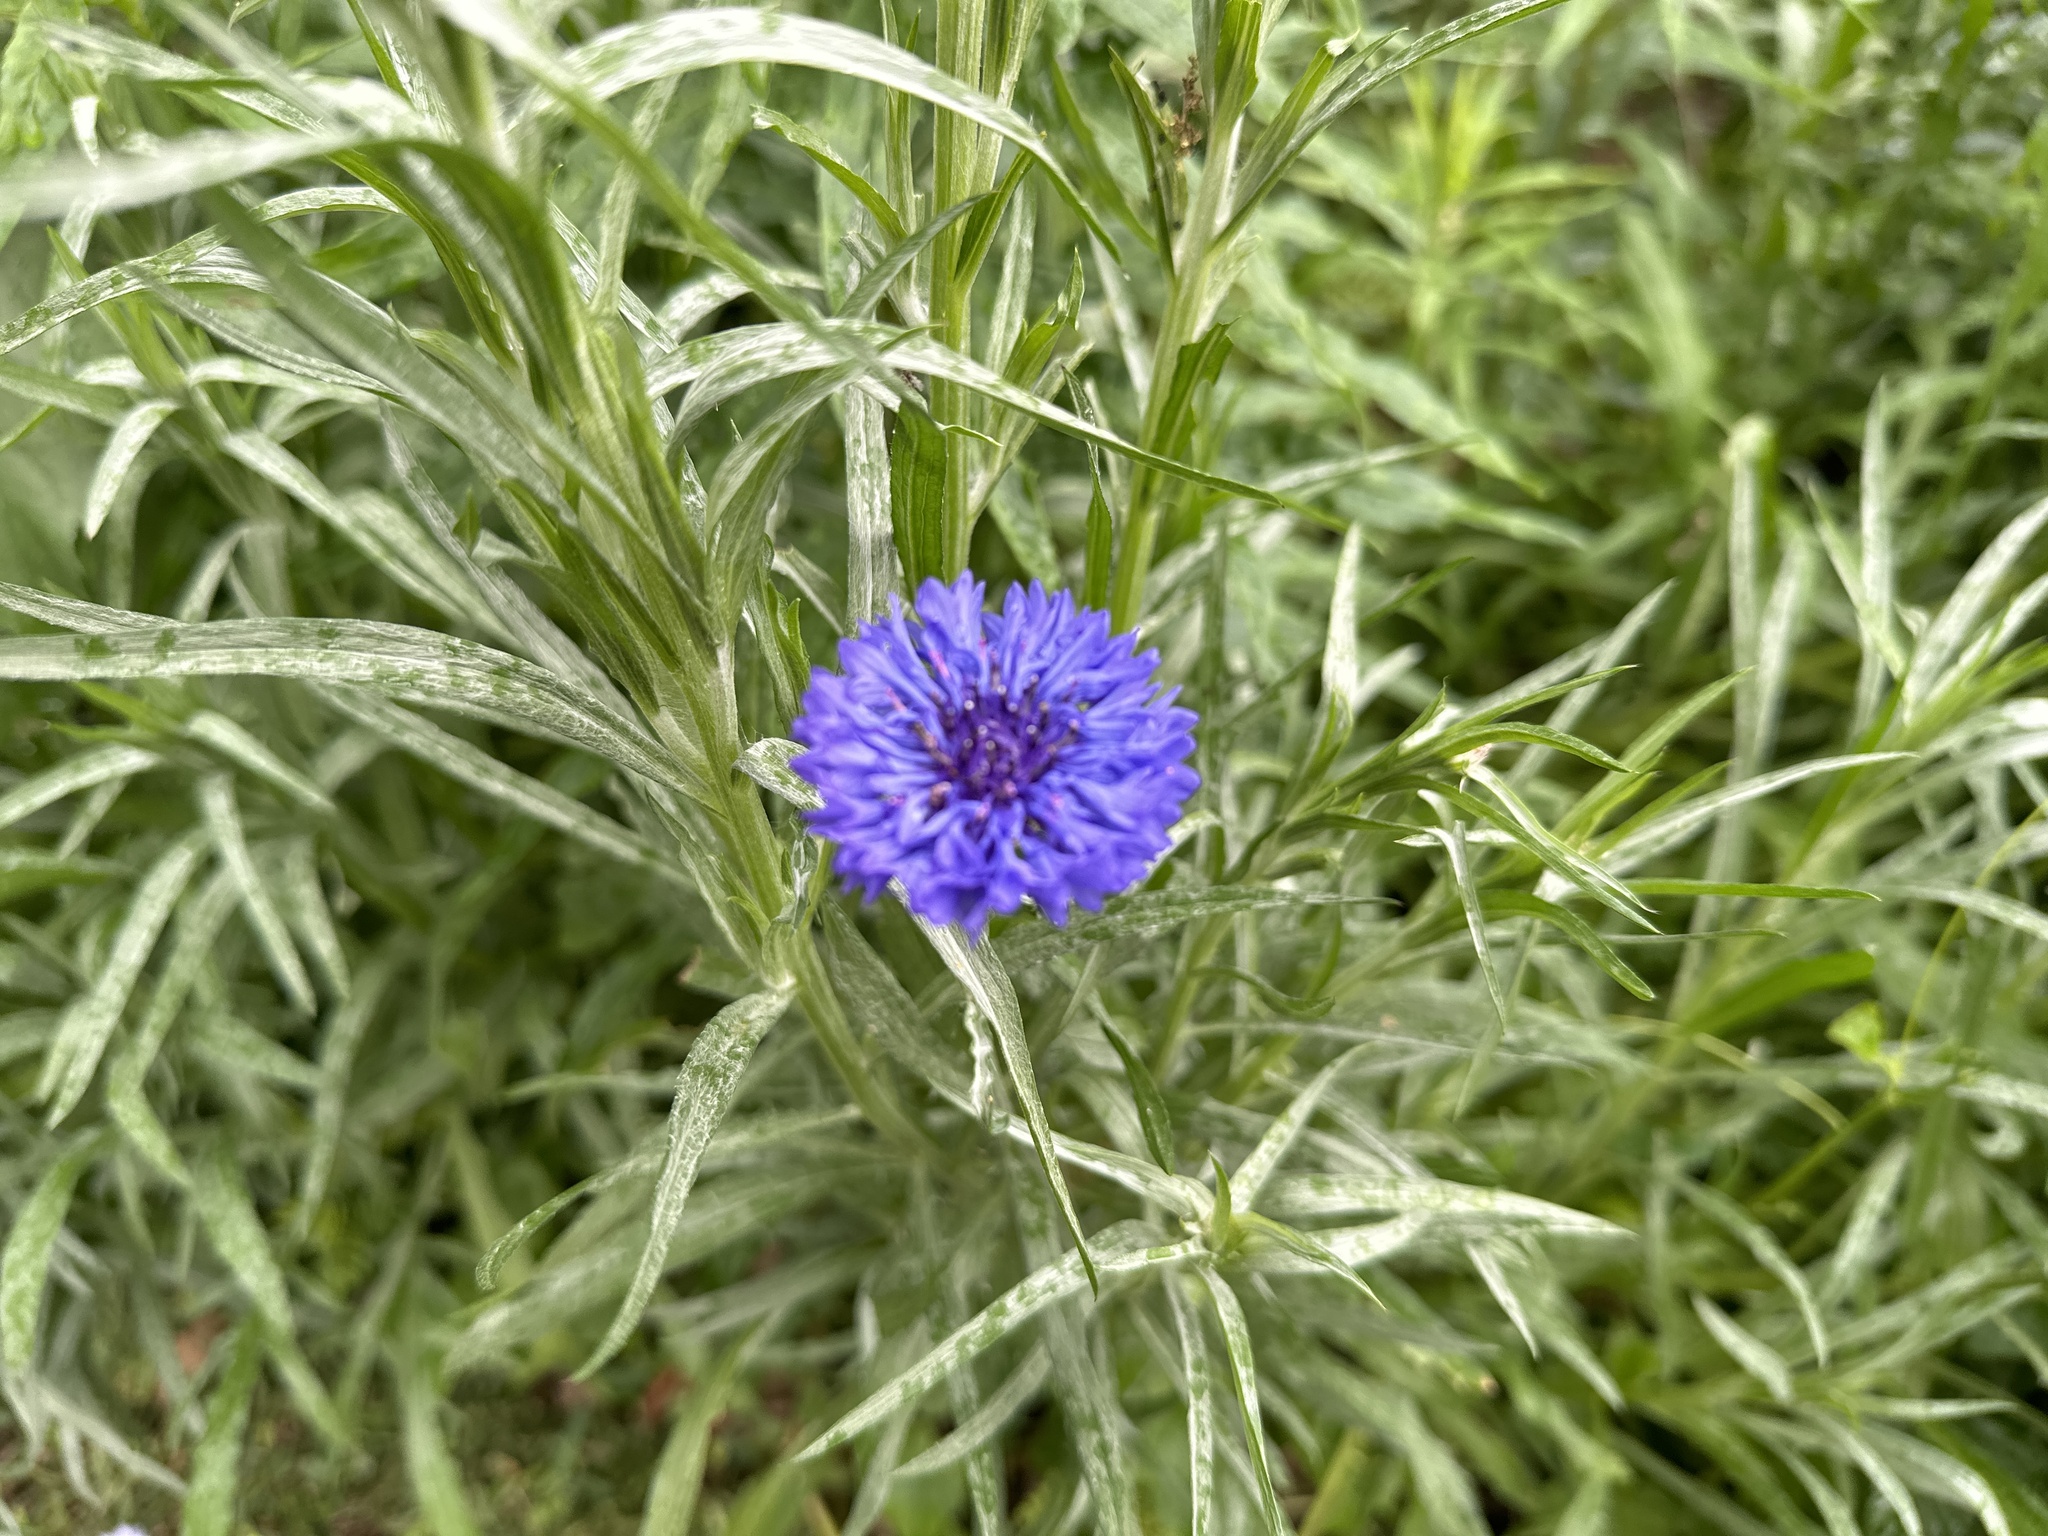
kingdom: Plantae
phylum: Tracheophyta
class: Magnoliopsida
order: Asterales
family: Asteraceae
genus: Centaurea
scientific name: Centaurea cyanus
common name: Cornflower
